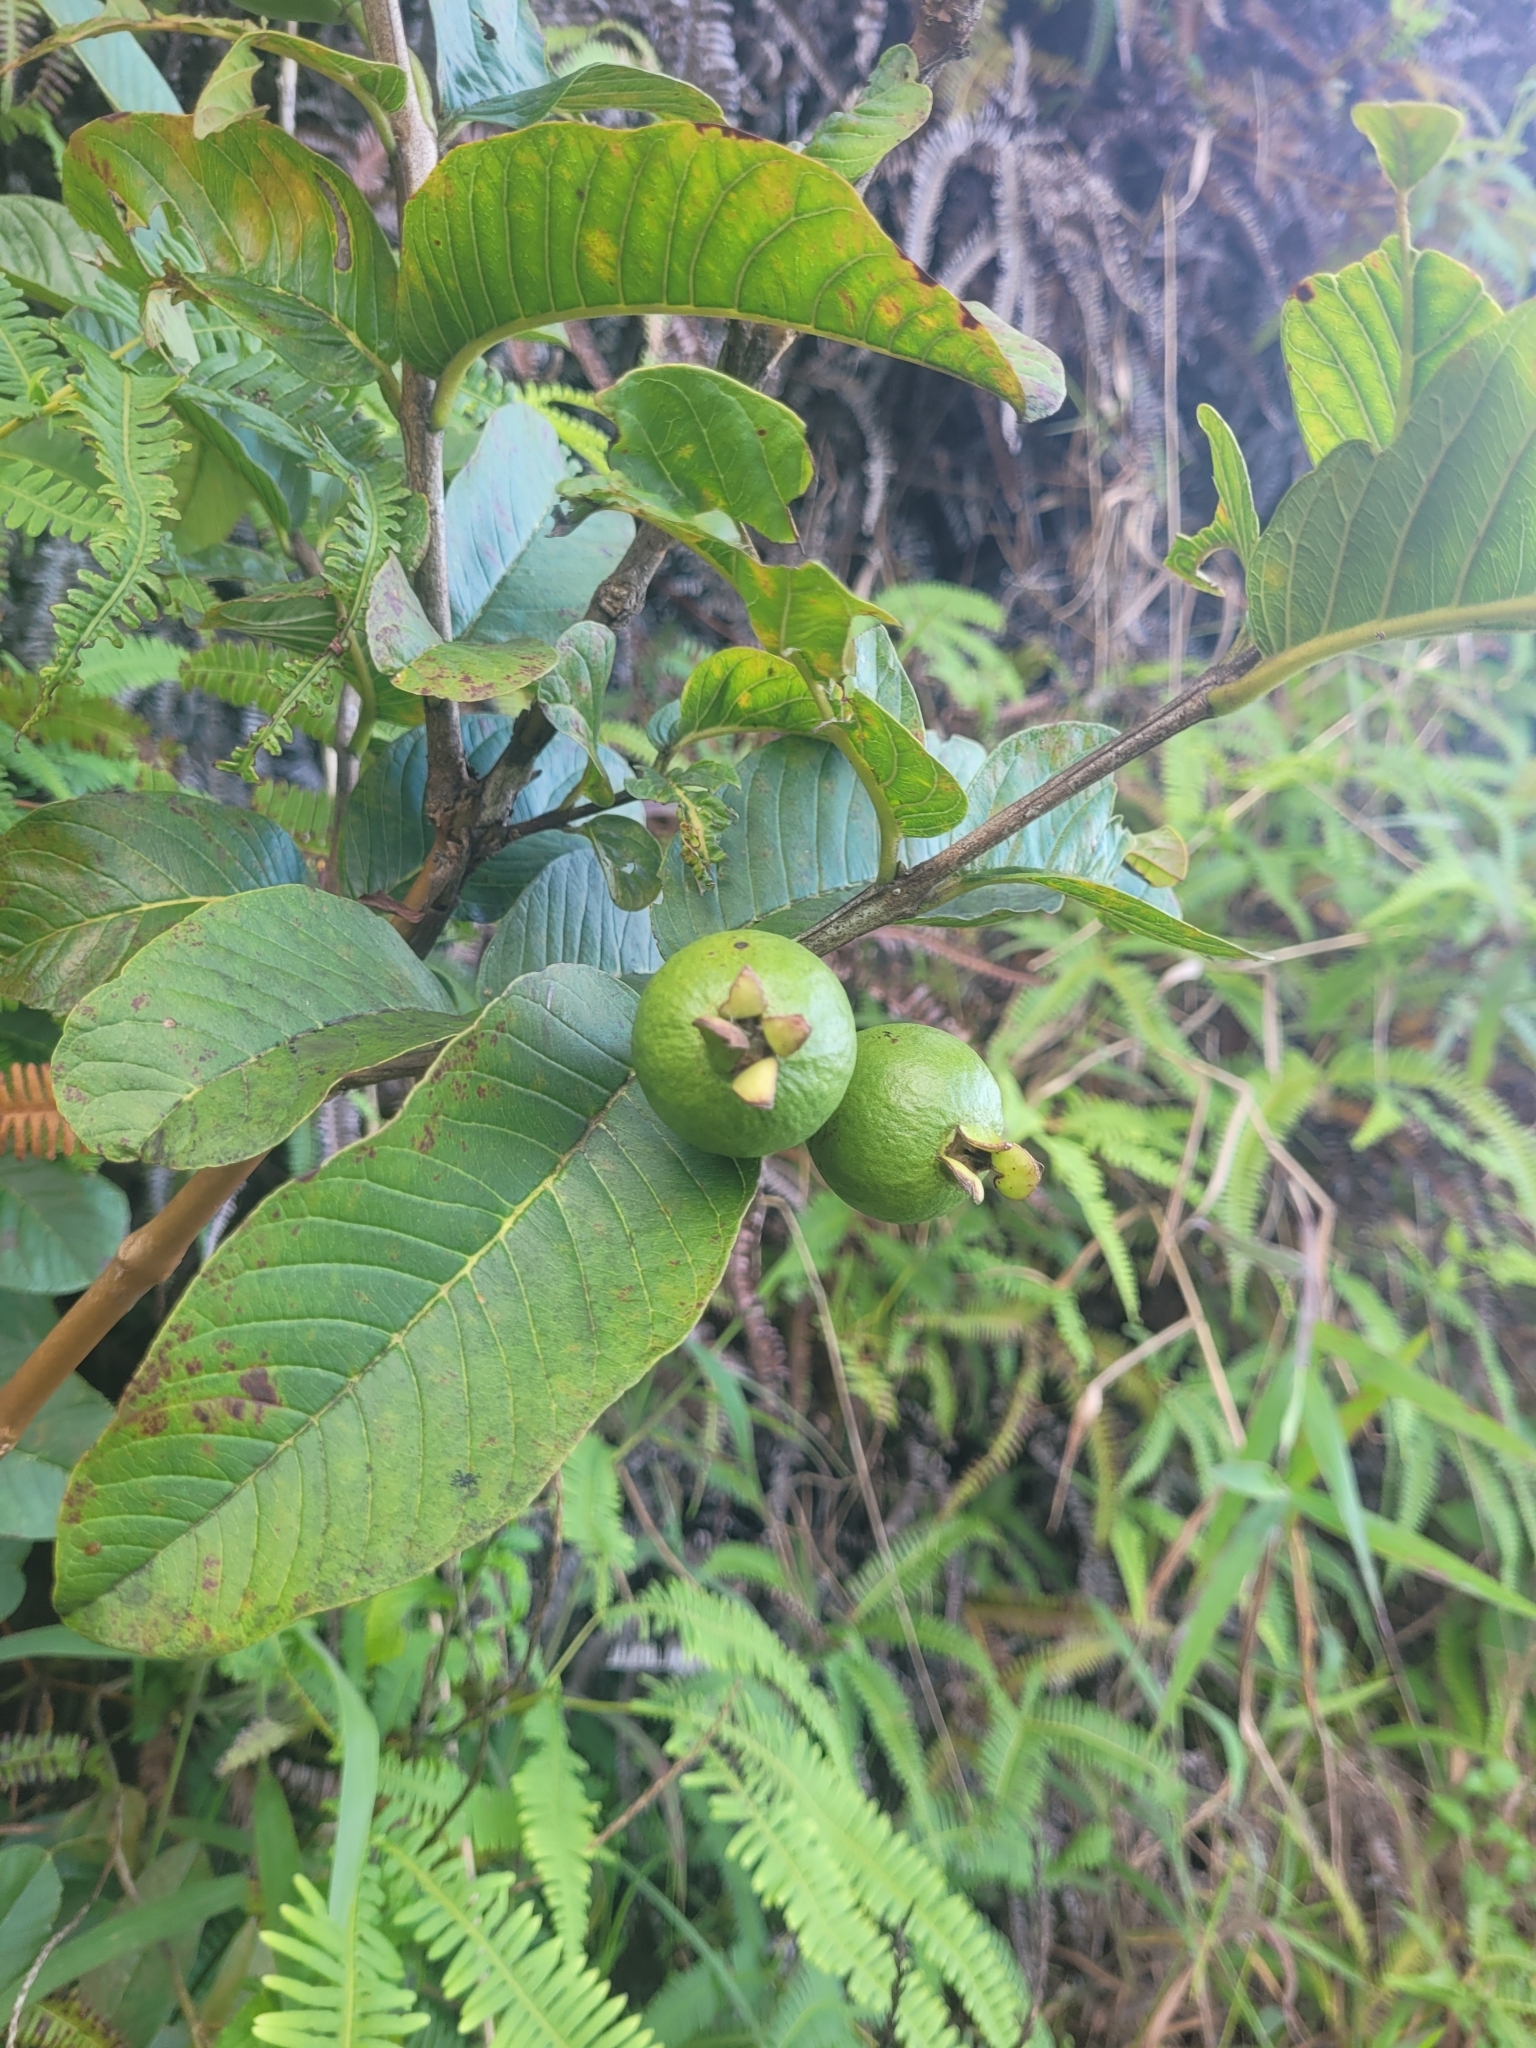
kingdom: Plantae
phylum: Tracheophyta
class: Magnoliopsida
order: Myrtales
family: Myrtaceae
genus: Psidium
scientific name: Psidium guajava
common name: Guava
